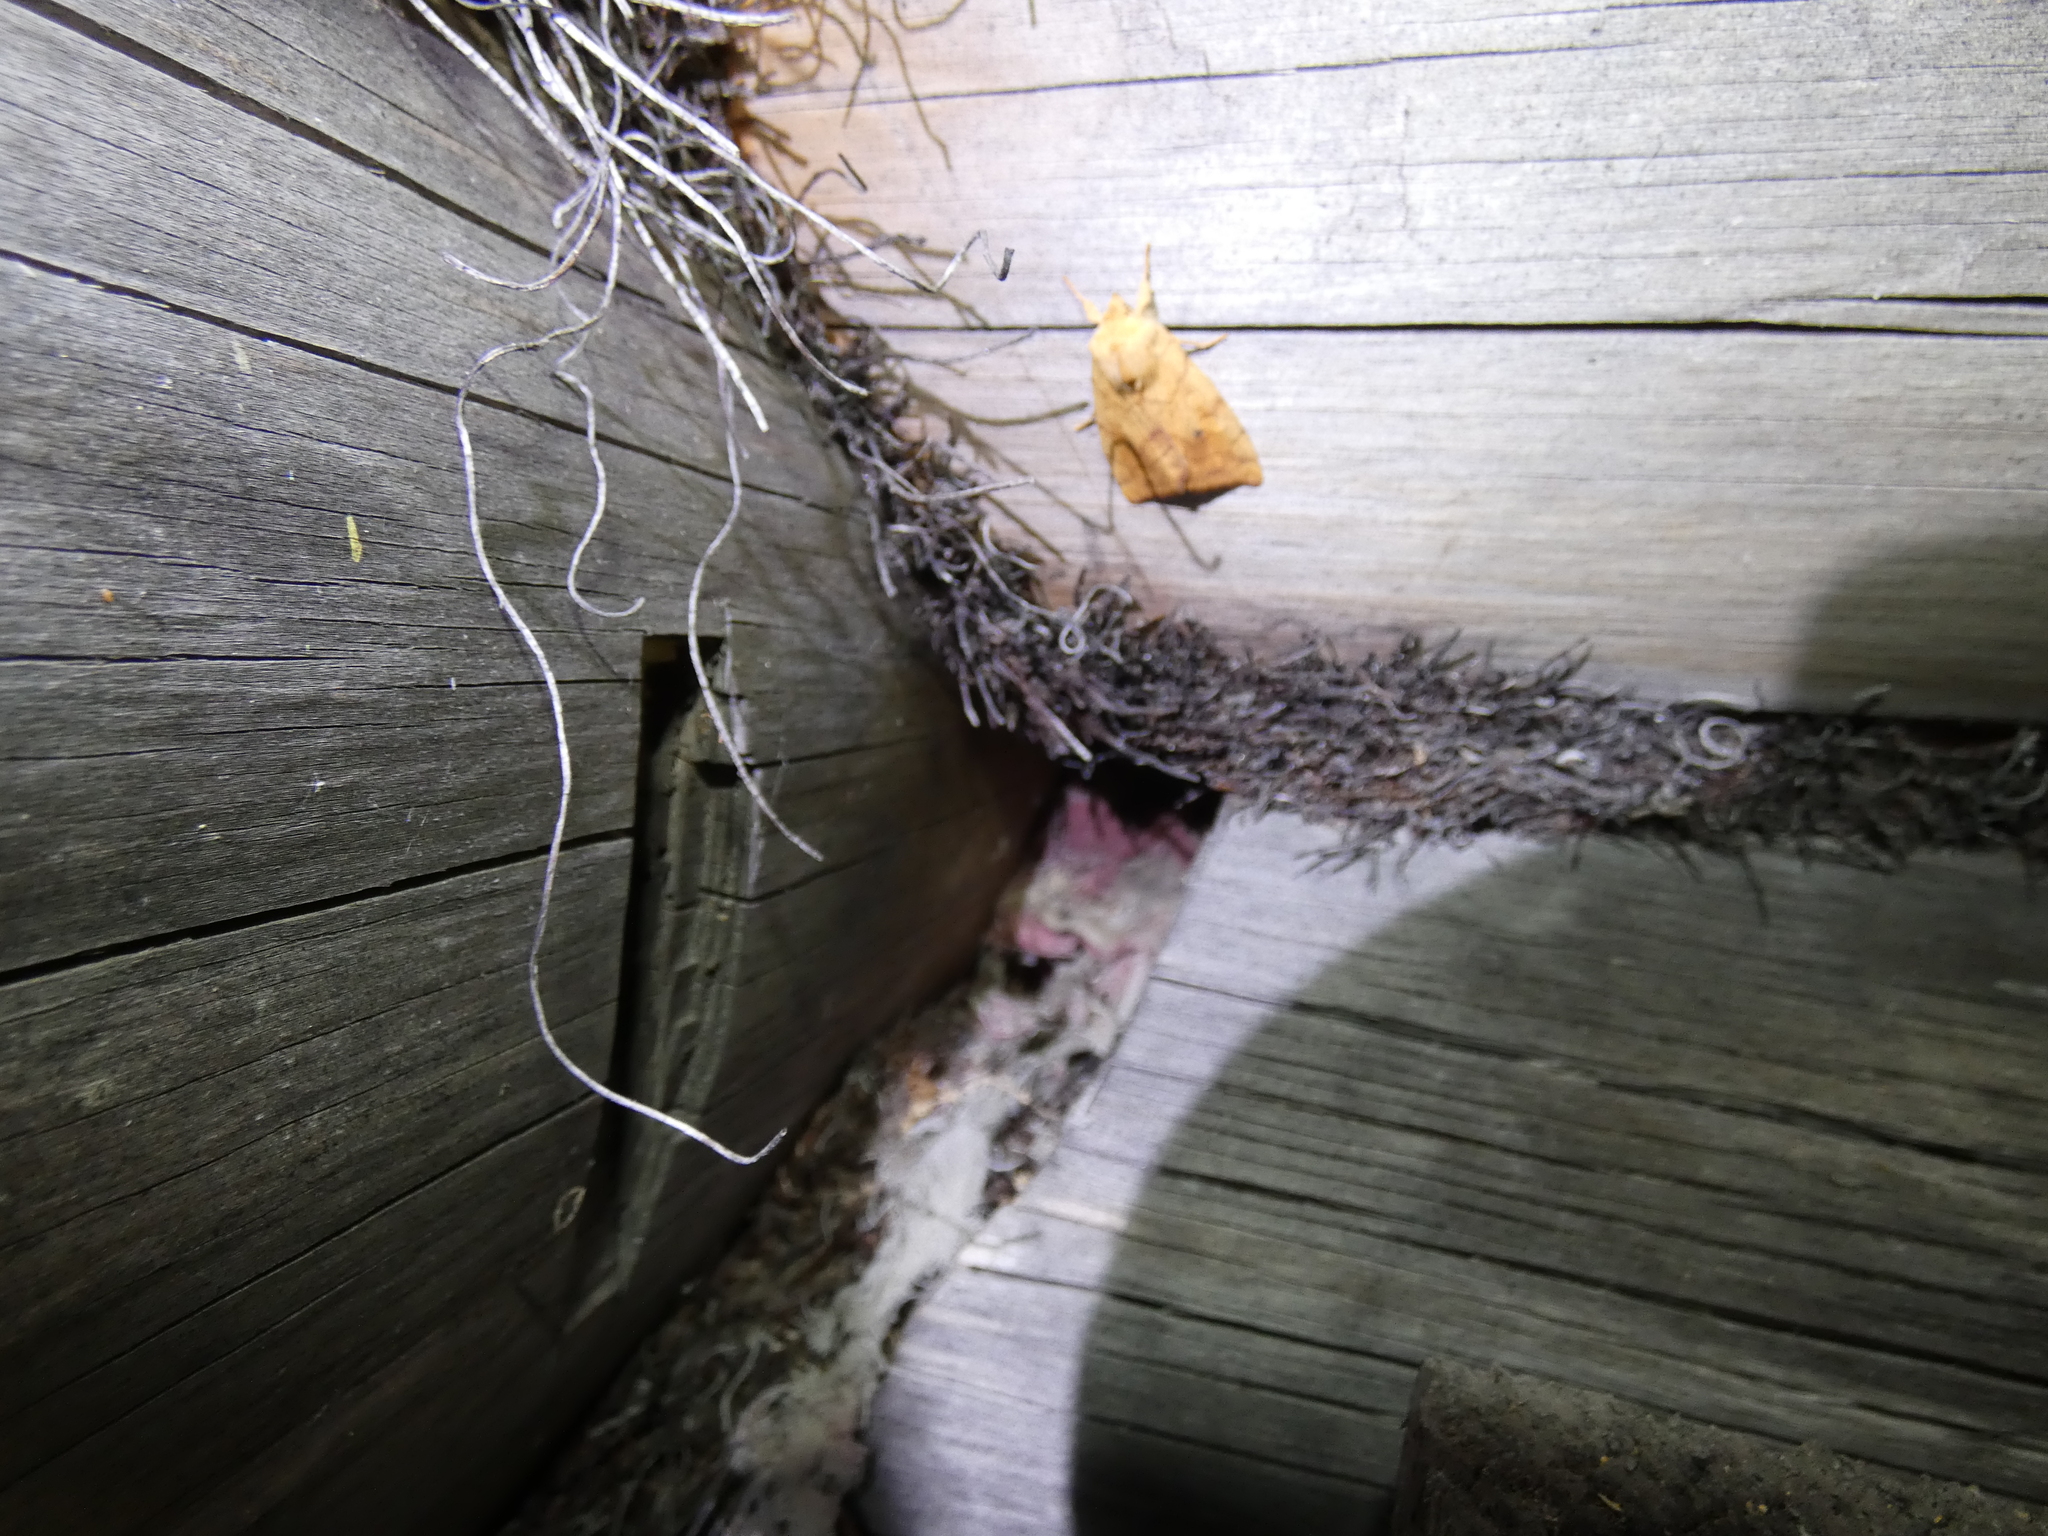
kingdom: Animalia
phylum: Arthropoda
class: Insecta
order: Lepidoptera
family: Noctuidae
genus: Enargia
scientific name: Enargia paleacea
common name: Angle-striped sallow
